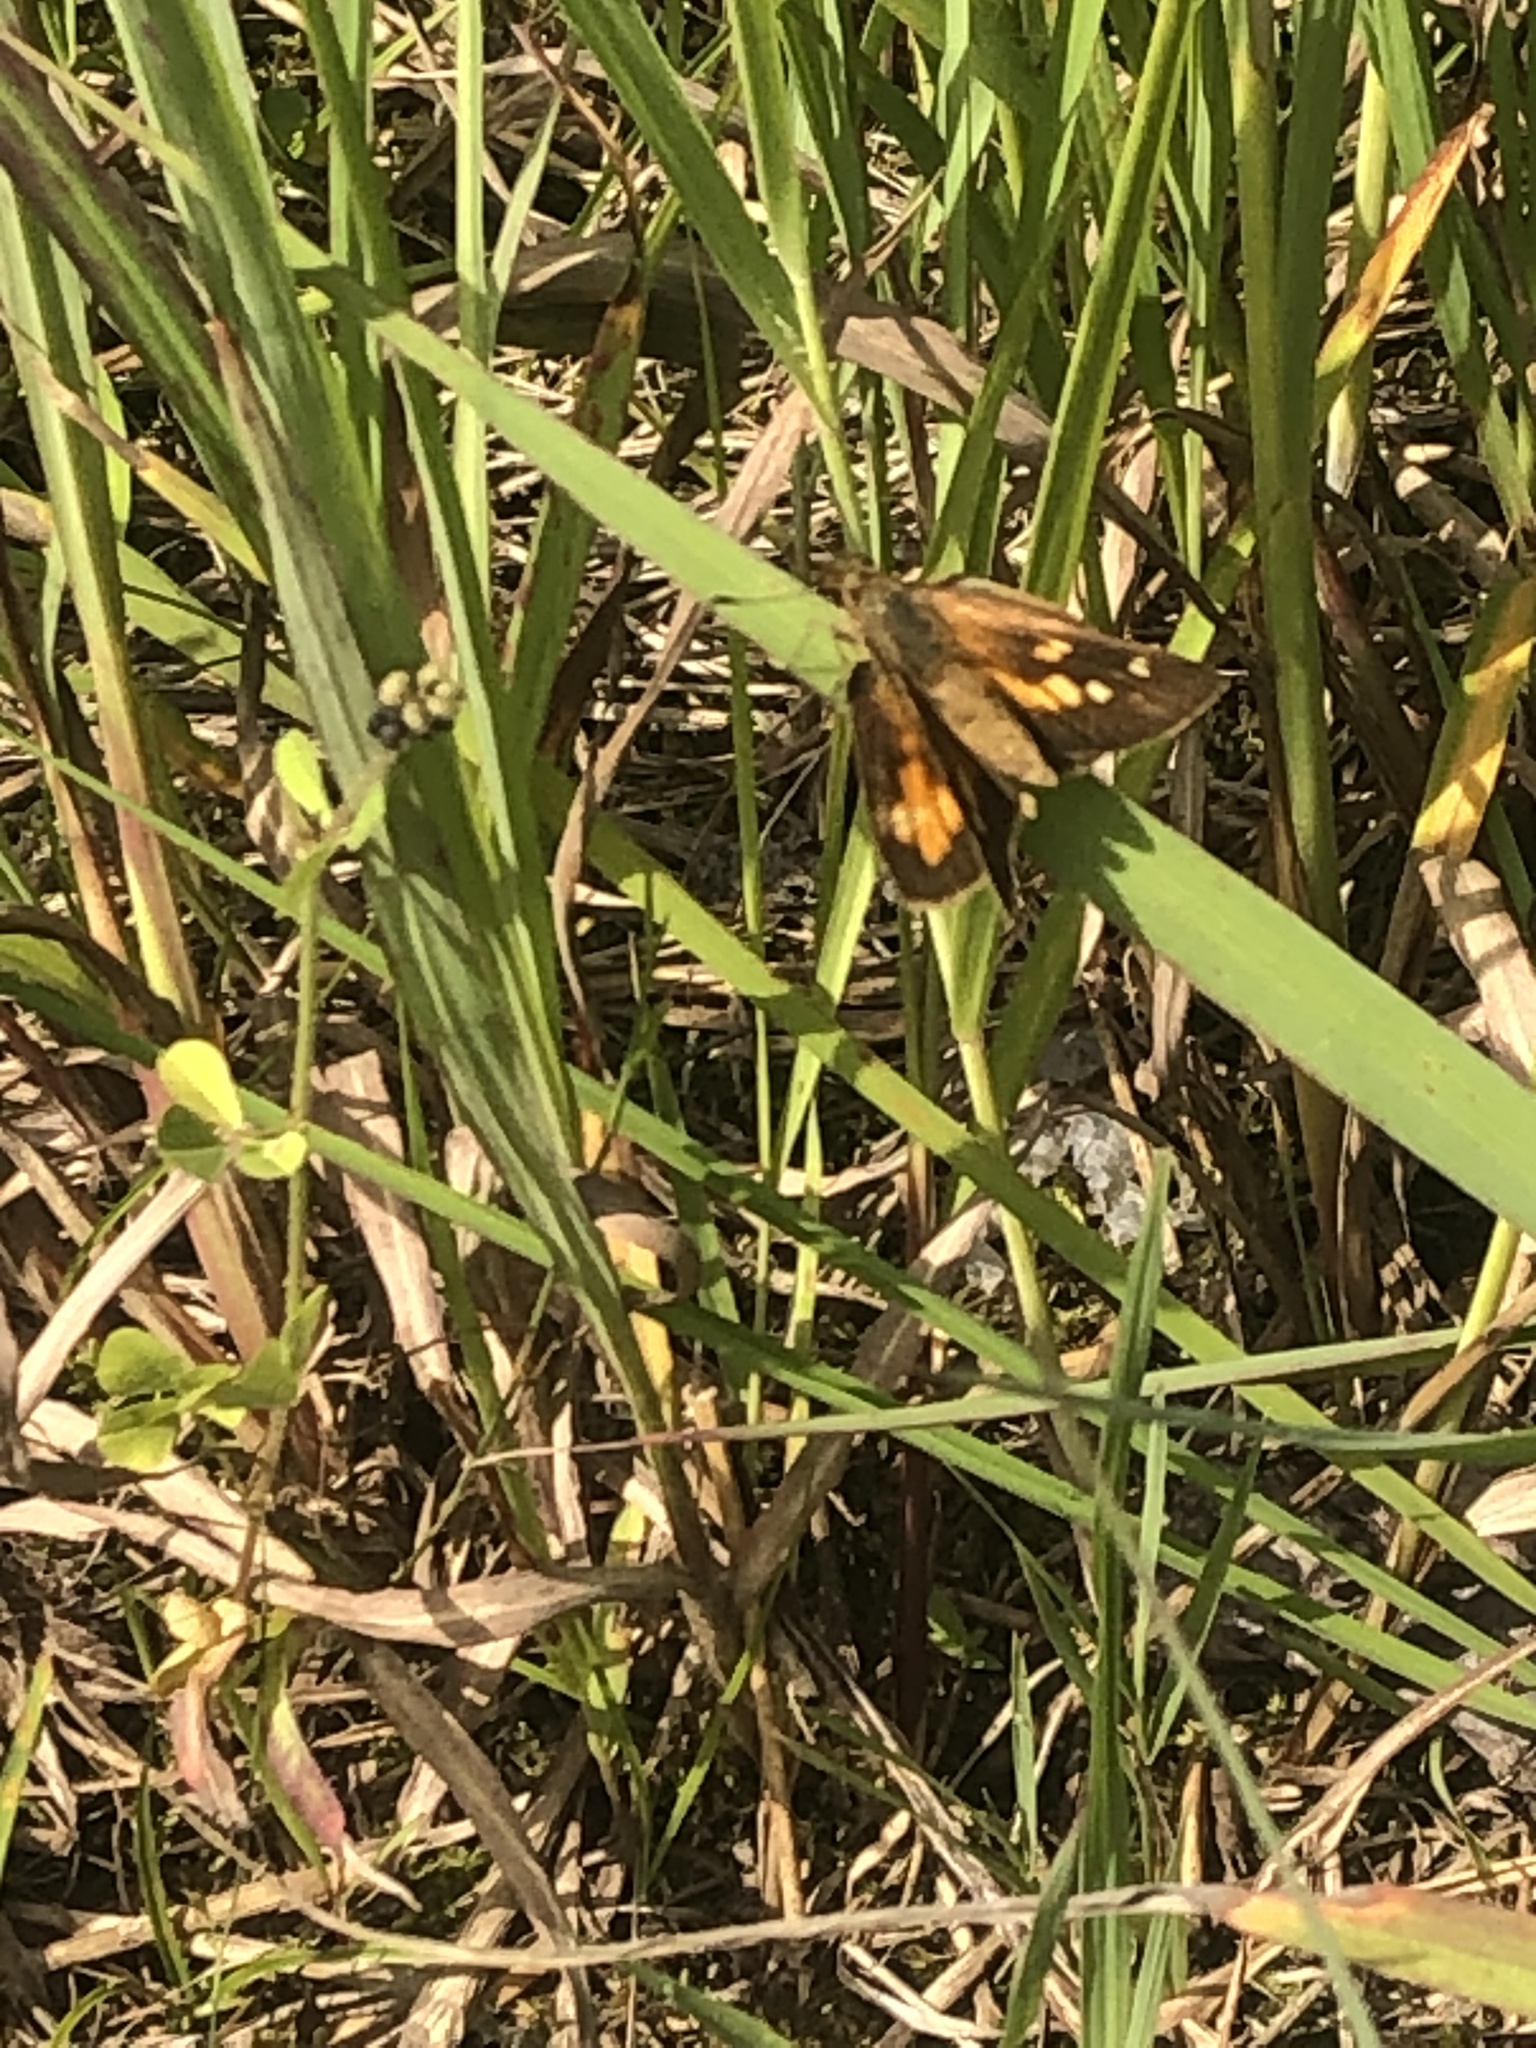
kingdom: Animalia
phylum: Arthropoda
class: Insecta
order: Lepidoptera
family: Hesperiidae
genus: Poanes
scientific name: Poanes viator
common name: Broad-winged skipper
